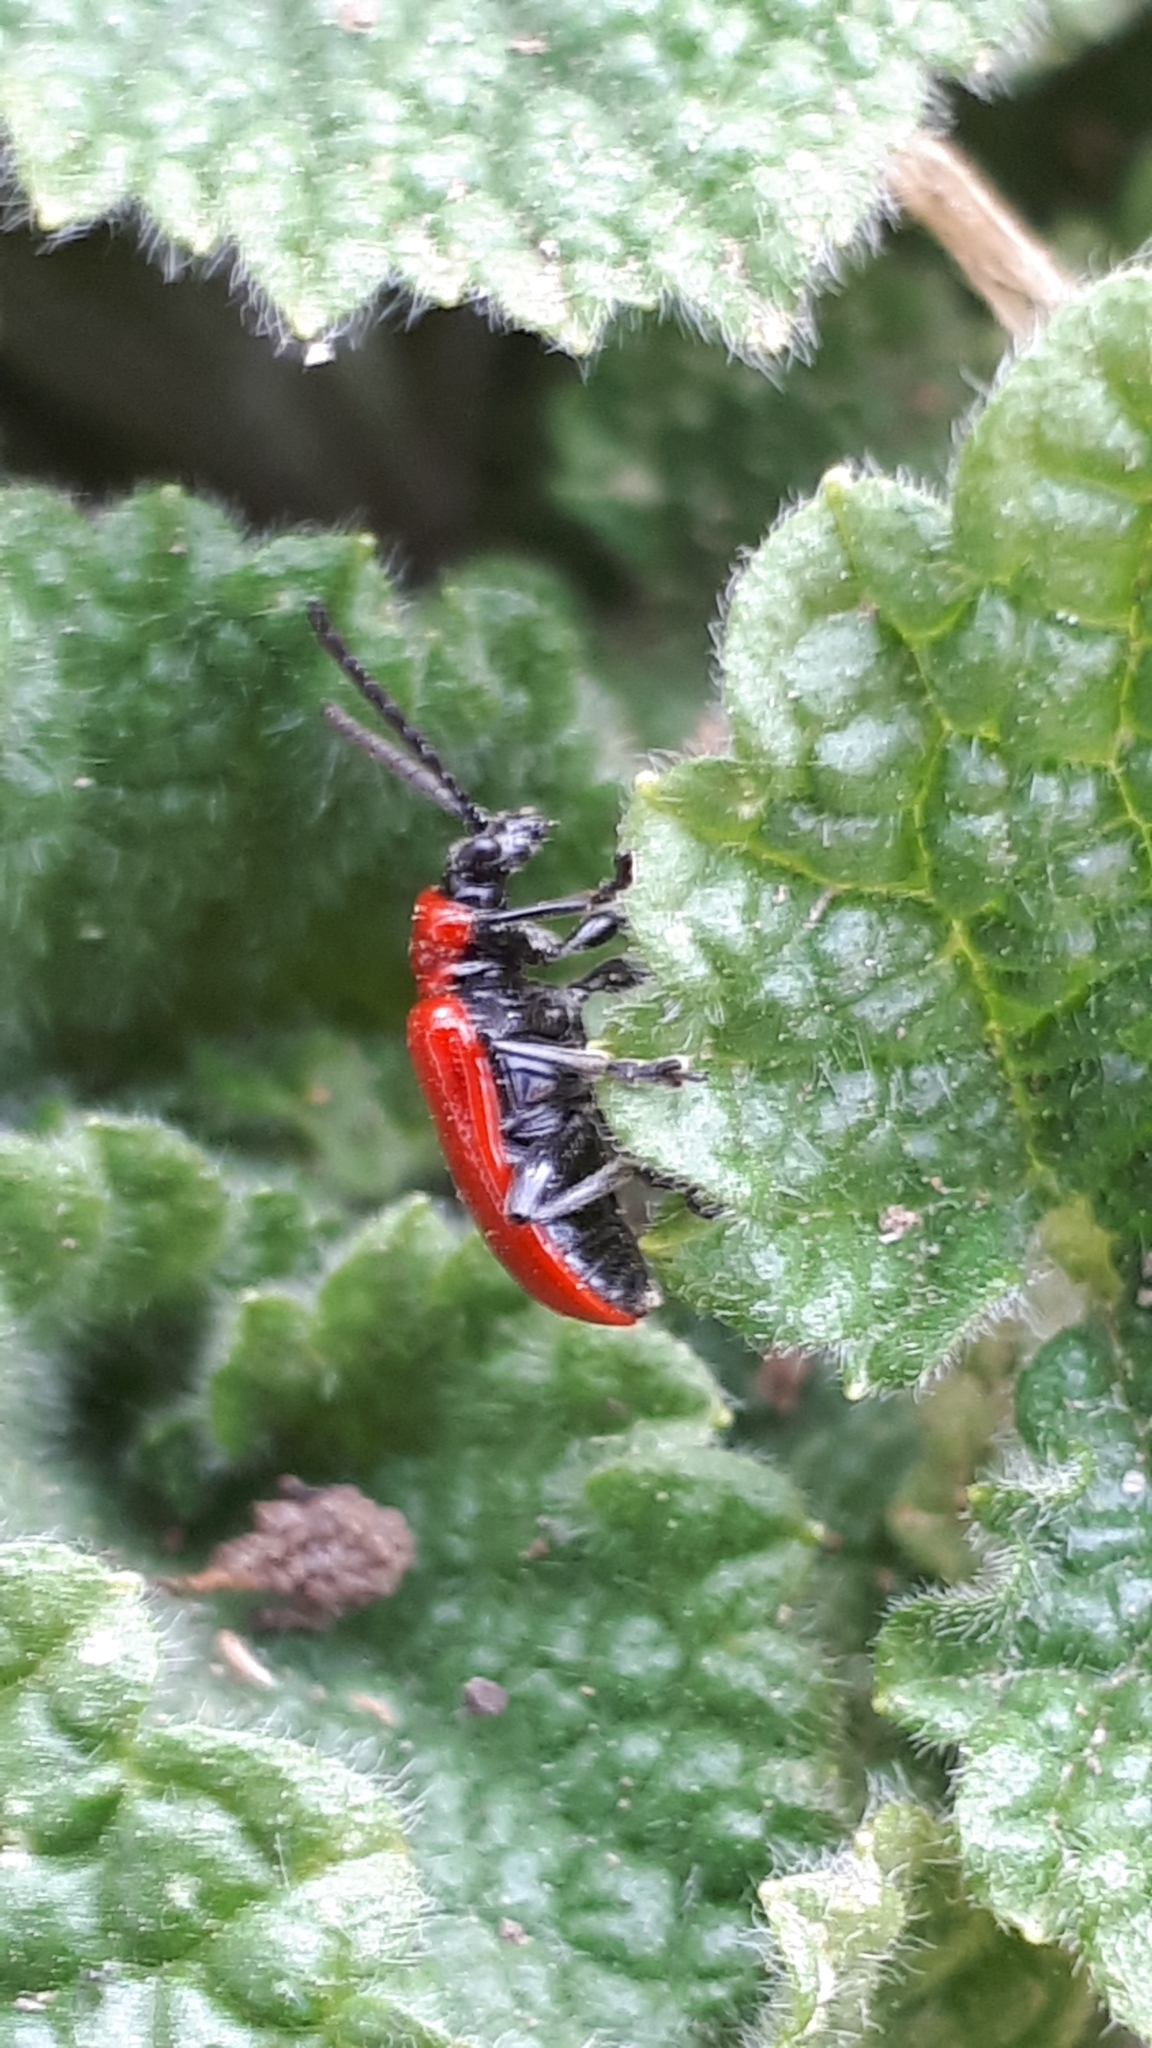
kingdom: Animalia
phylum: Arthropoda
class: Insecta
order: Coleoptera
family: Chrysomelidae
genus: Lilioceris
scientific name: Lilioceris lilii
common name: Lily beetle
